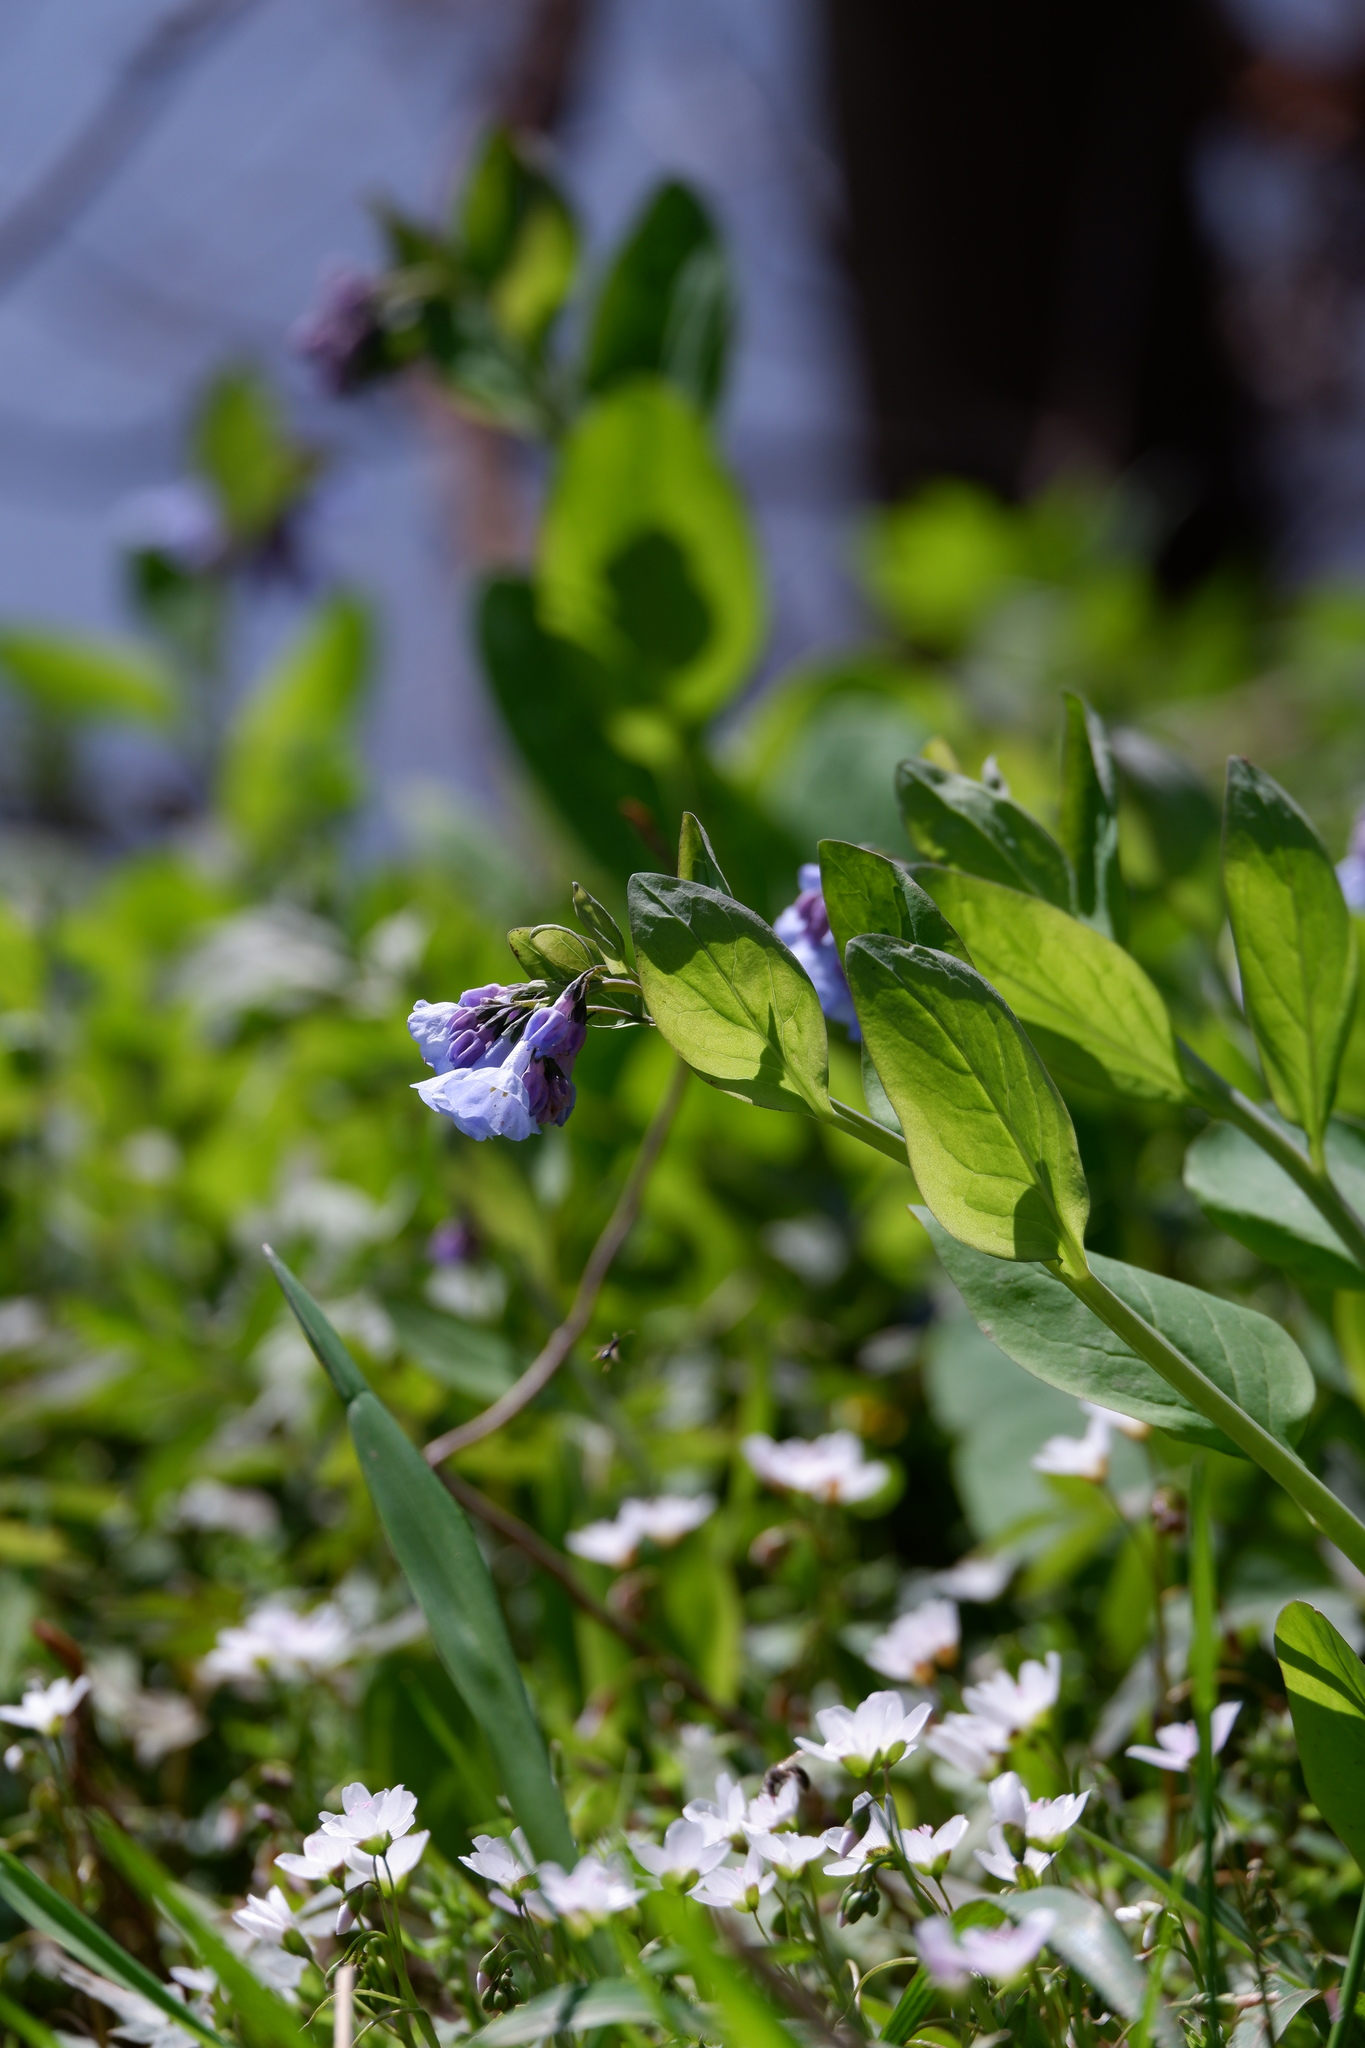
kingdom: Plantae
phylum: Tracheophyta
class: Magnoliopsida
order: Boraginales
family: Boraginaceae
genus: Mertensia
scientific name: Mertensia virginica
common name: Virginia bluebells
